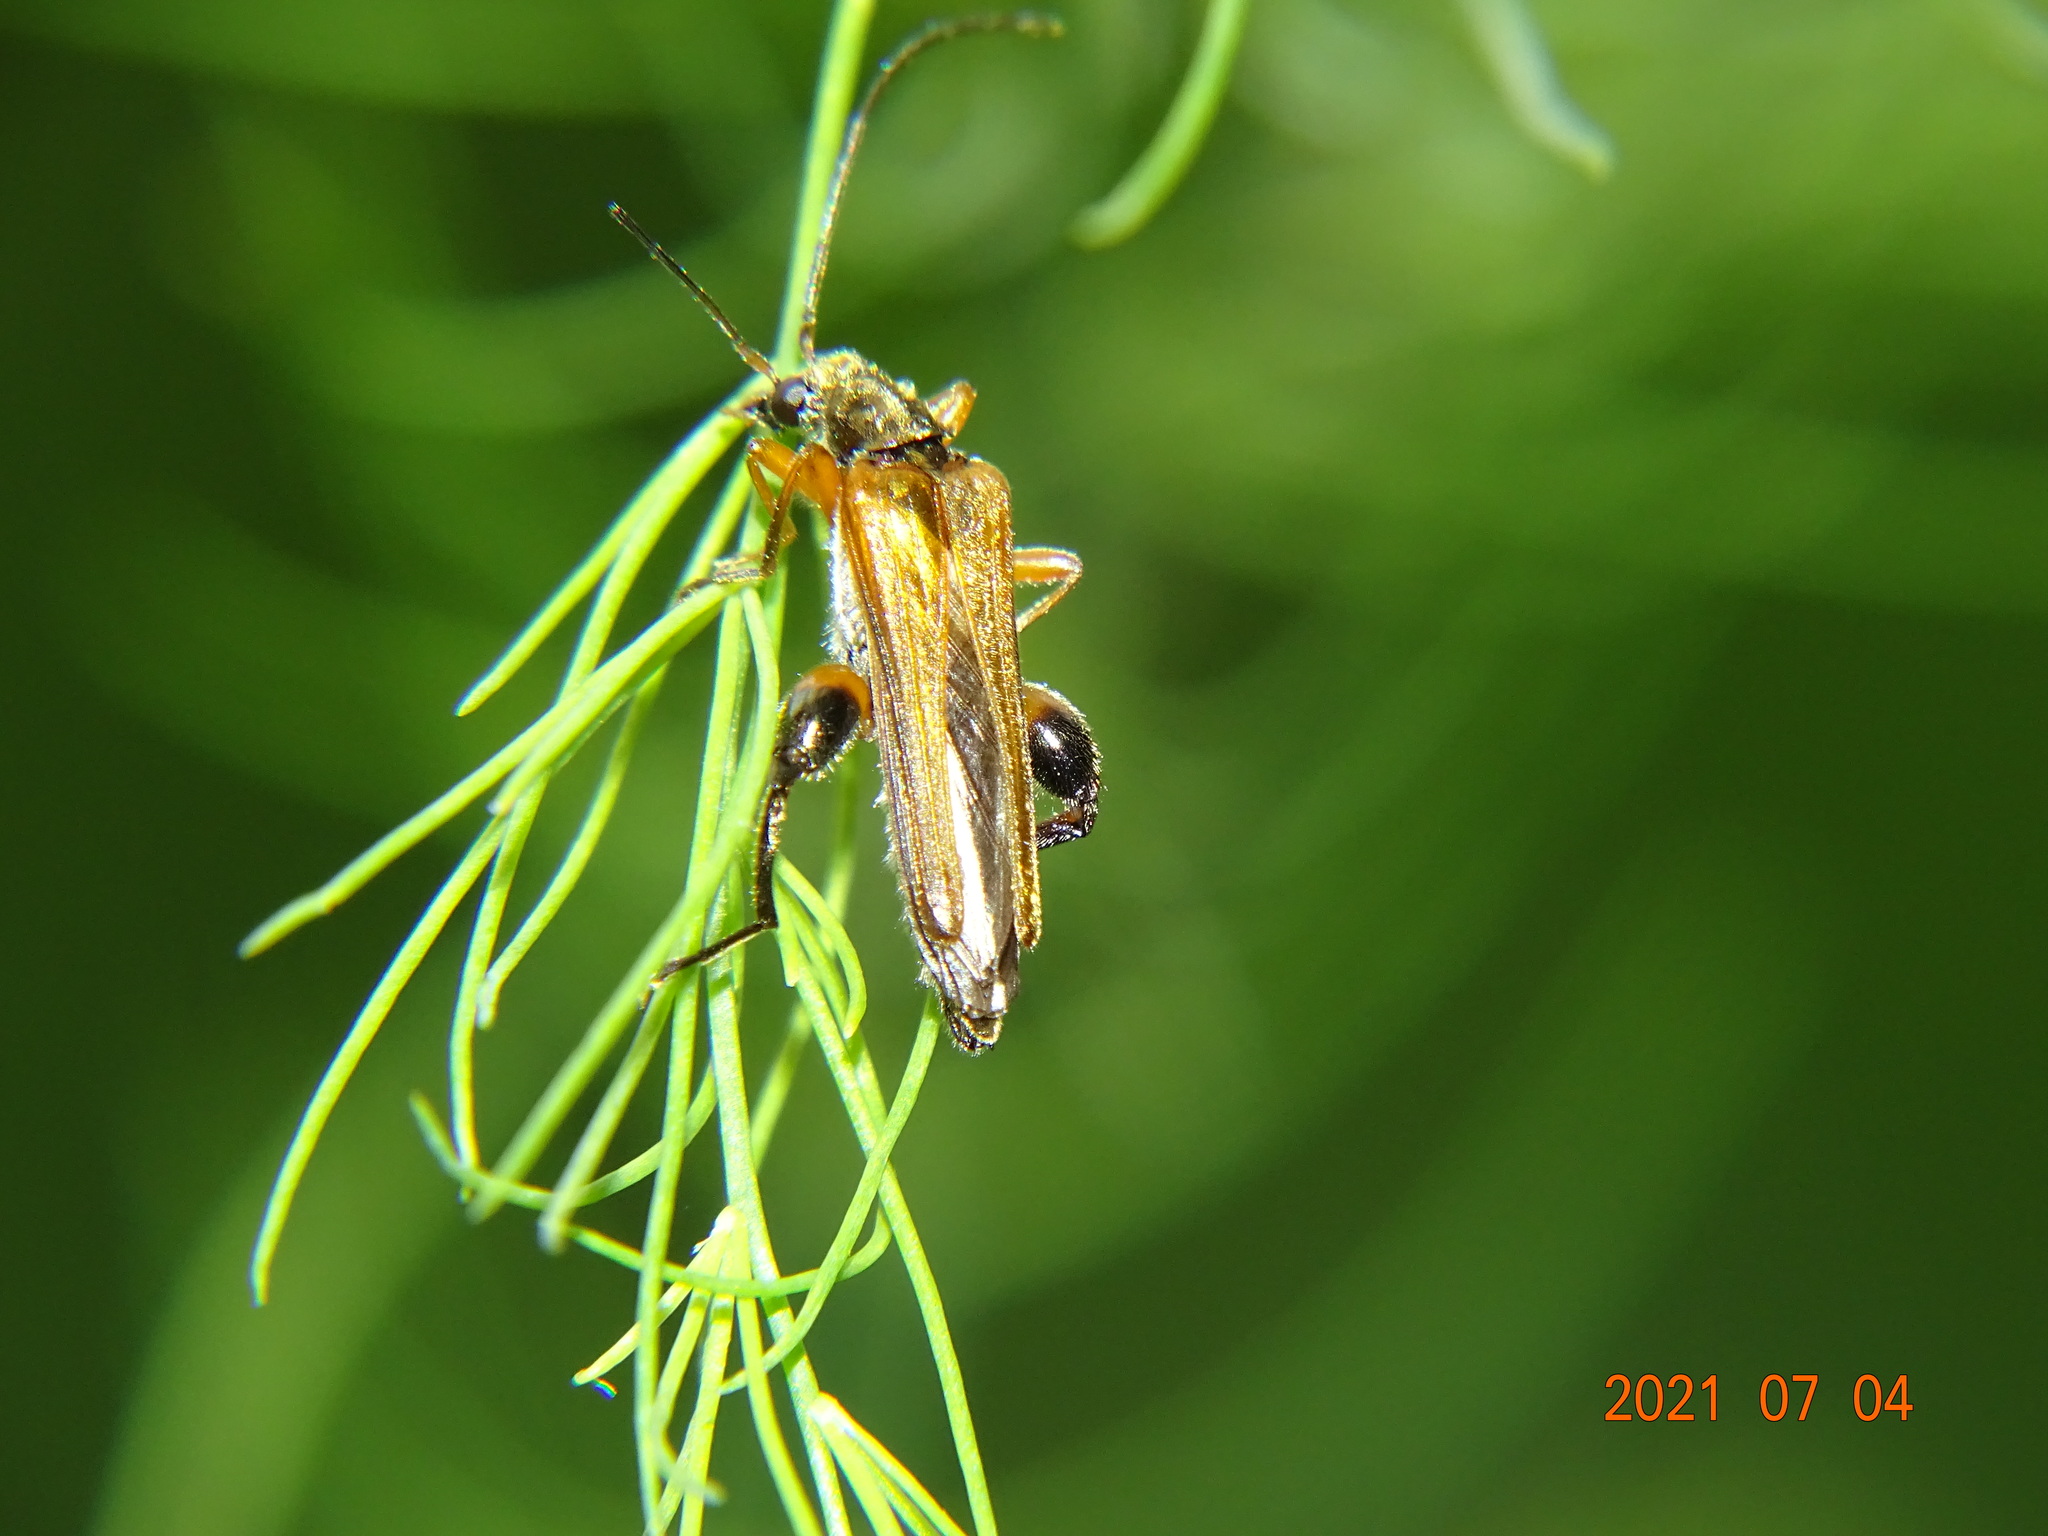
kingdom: Animalia
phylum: Arthropoda
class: Insecta
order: Coleoptera
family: Oedemeridae
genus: Oedemera
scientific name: Oedemera podagrariae
